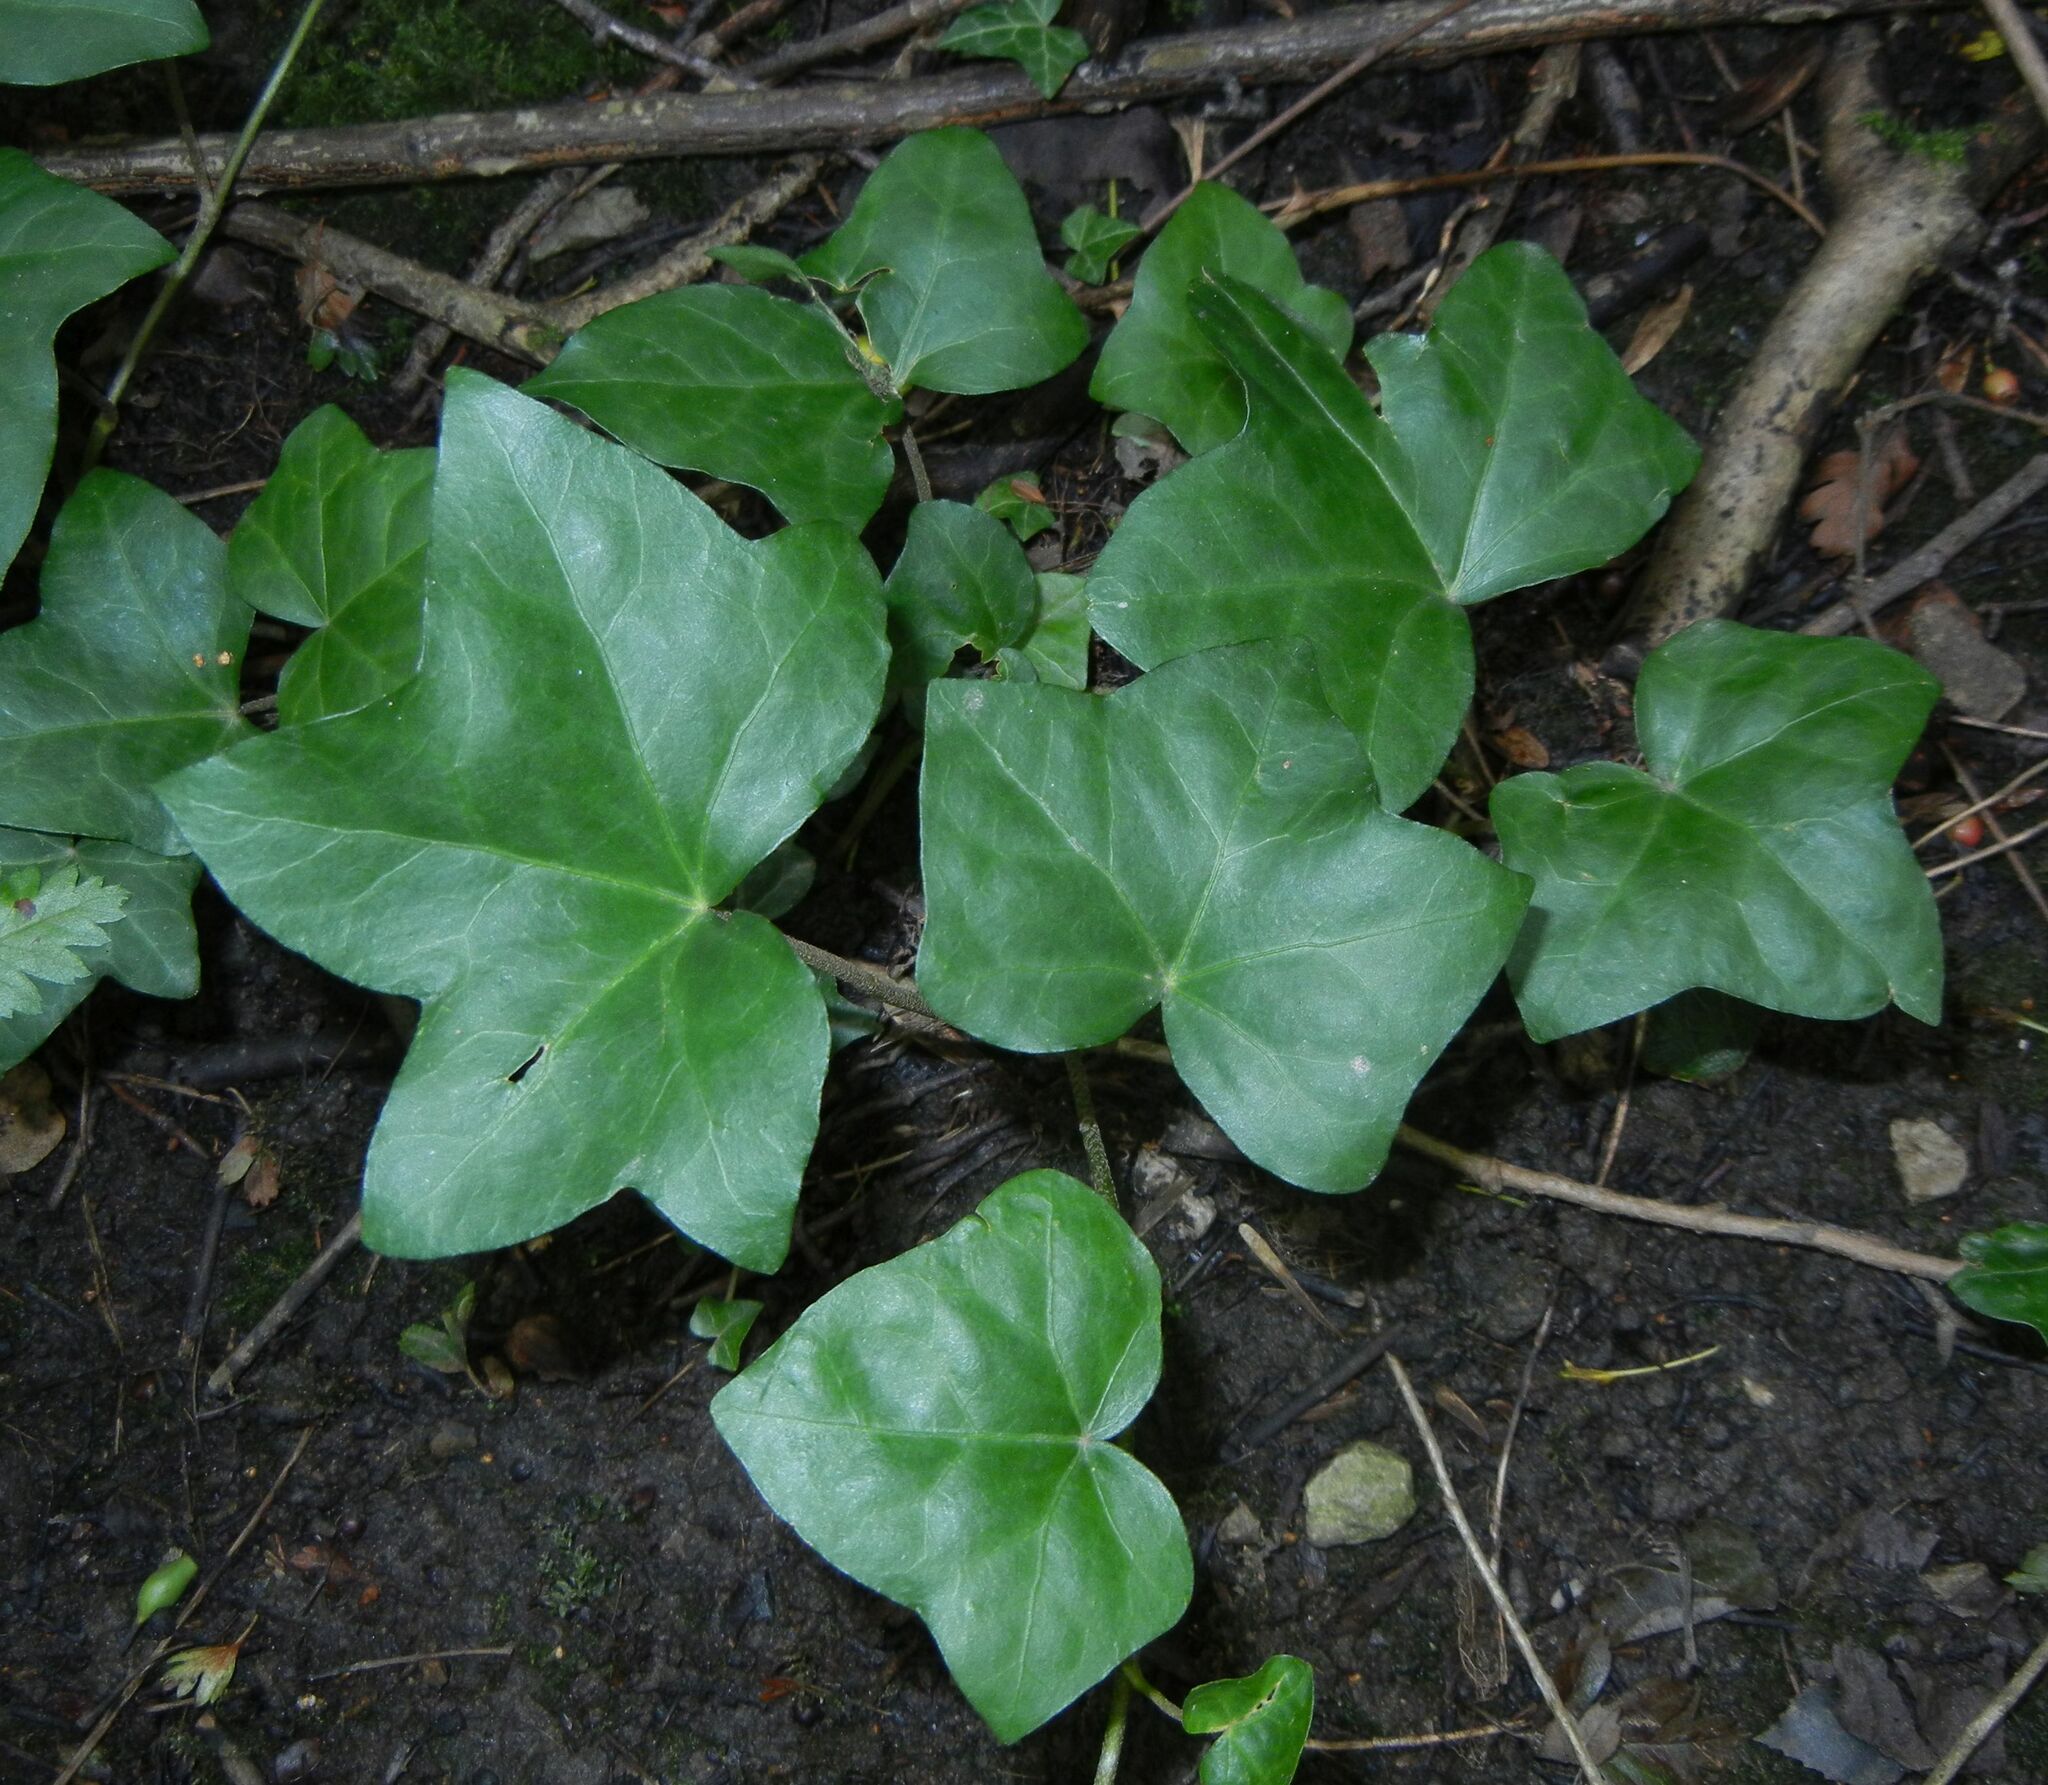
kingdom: Plantae
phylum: Tracheophyta
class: Magnoliopsida
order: Apiales
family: Araliaceae
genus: Hedera
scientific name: Hedera helix
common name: Ivy
